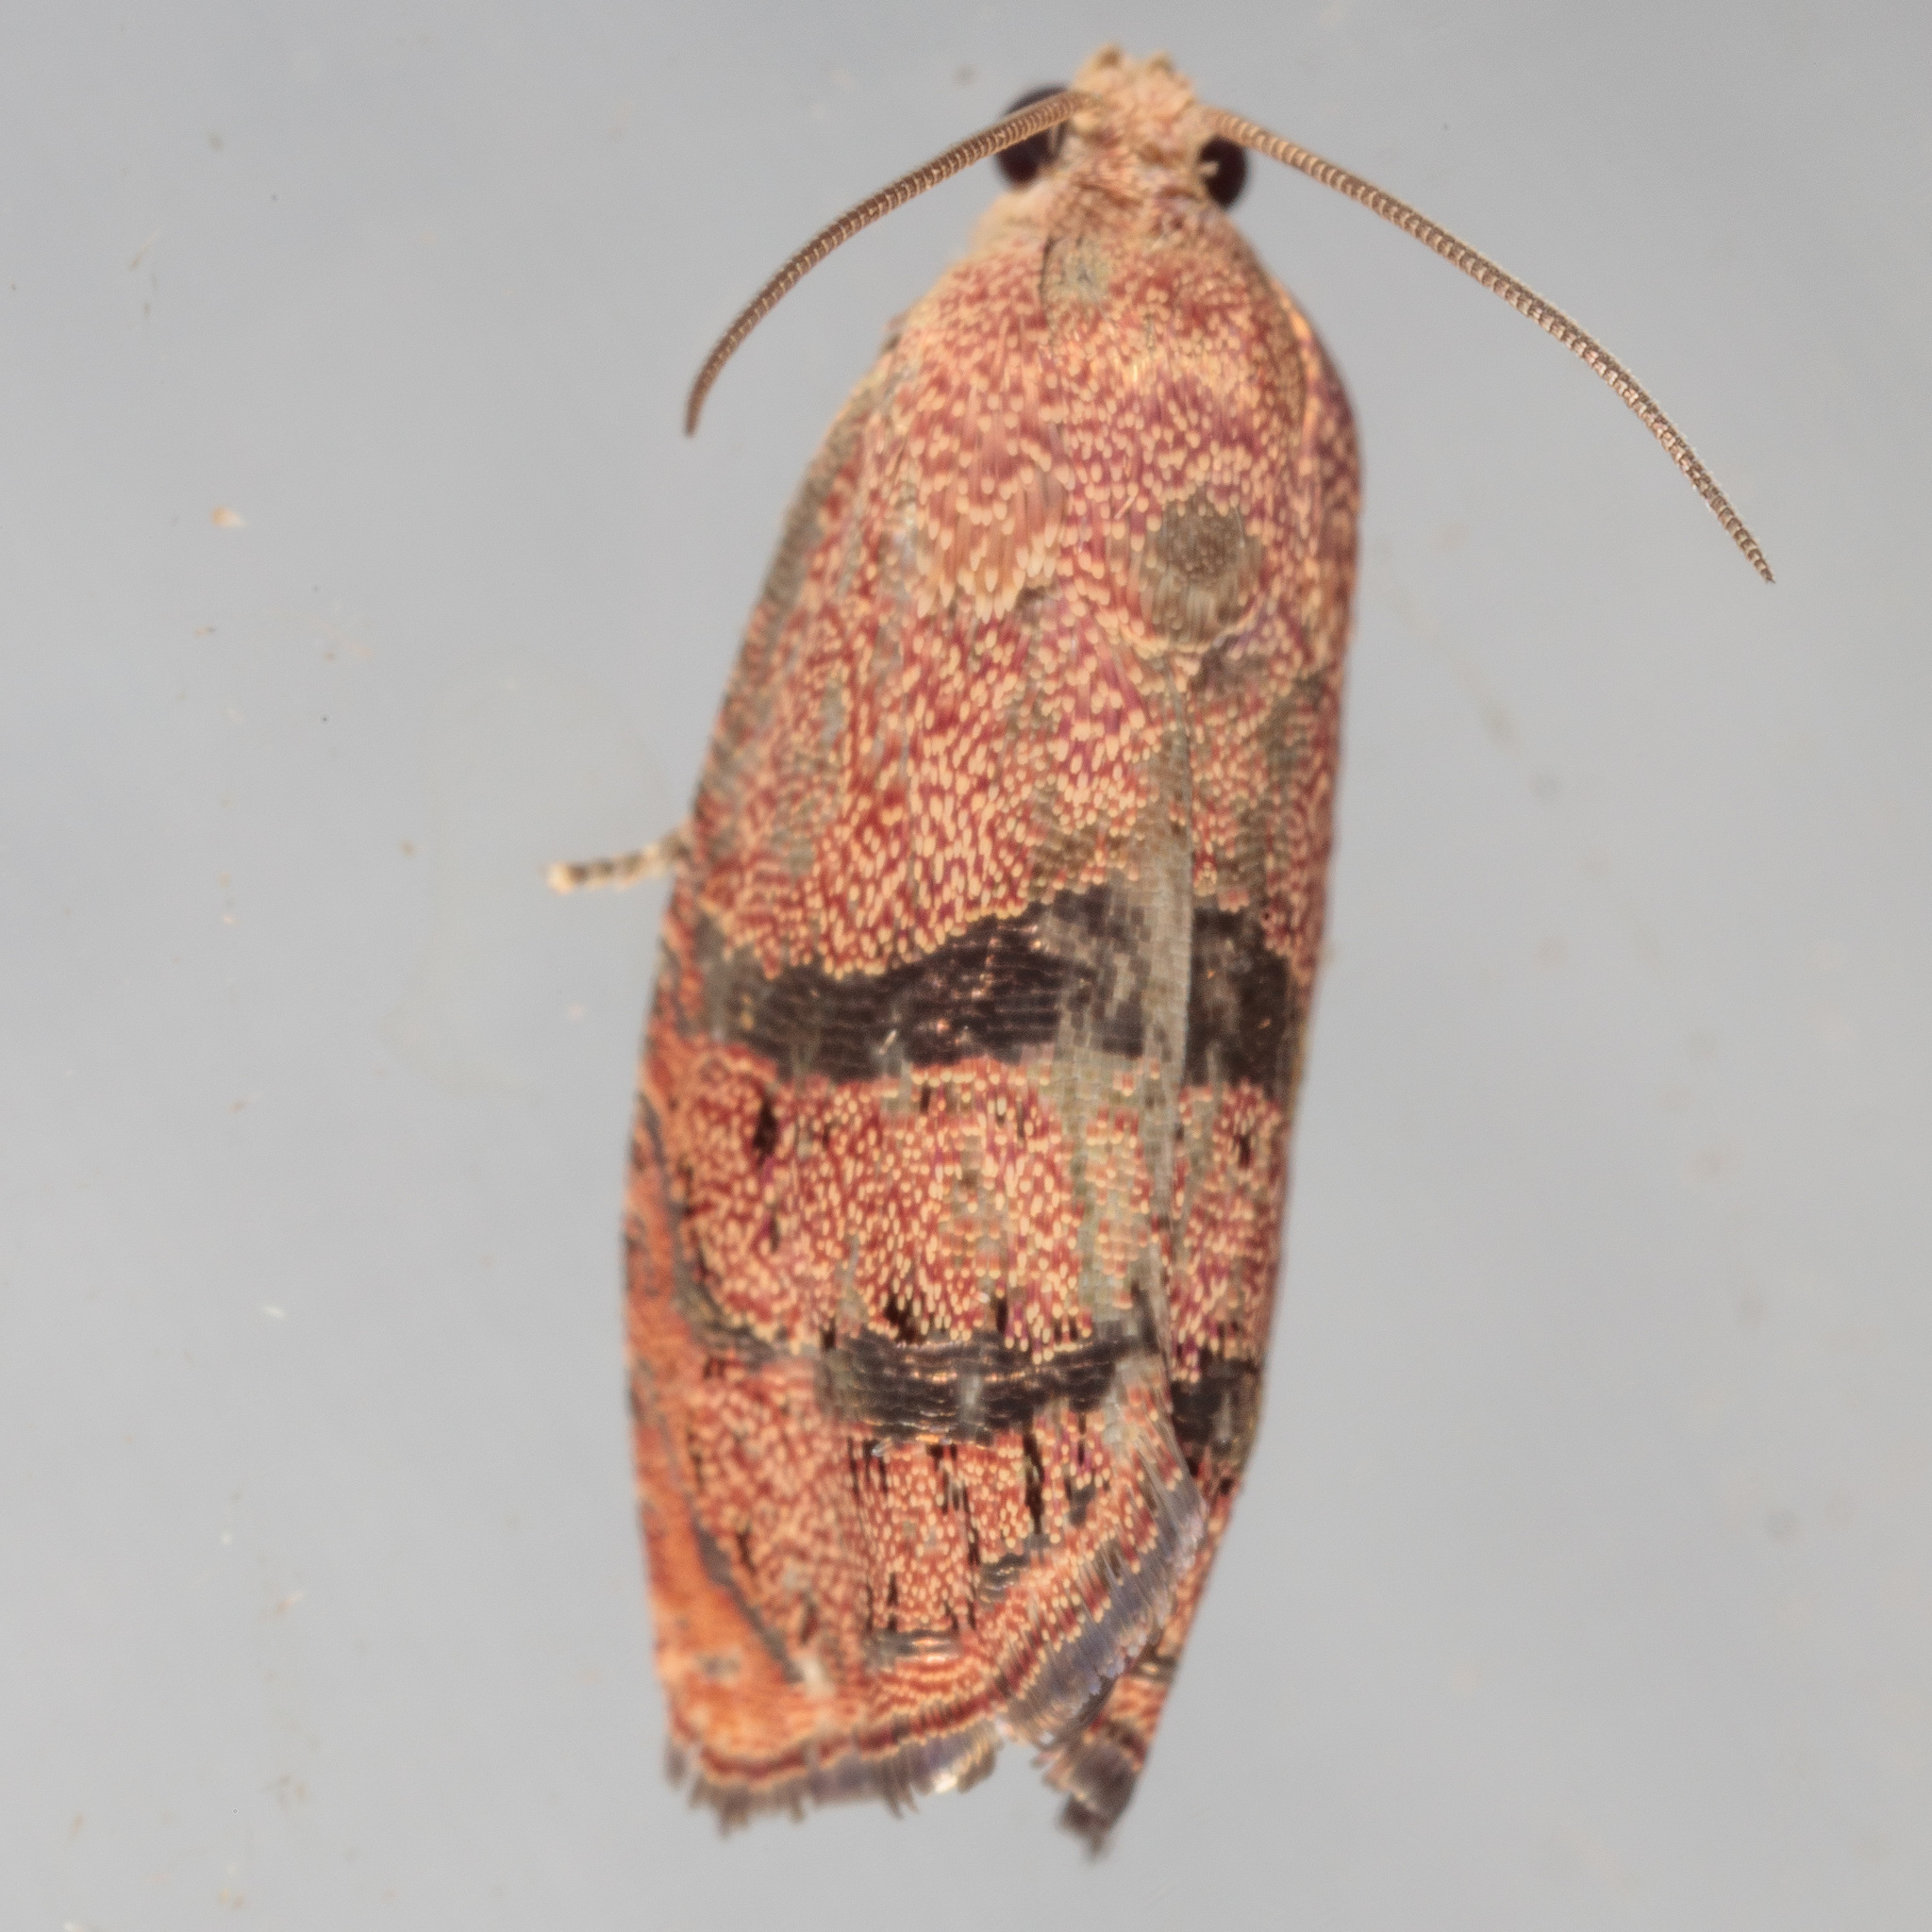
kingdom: Animalia
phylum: Arthropoda
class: Insecta
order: Lepidoptera
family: Tortricidae
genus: Cydia
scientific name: Cydia latiferreana
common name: Filbertworm moth
